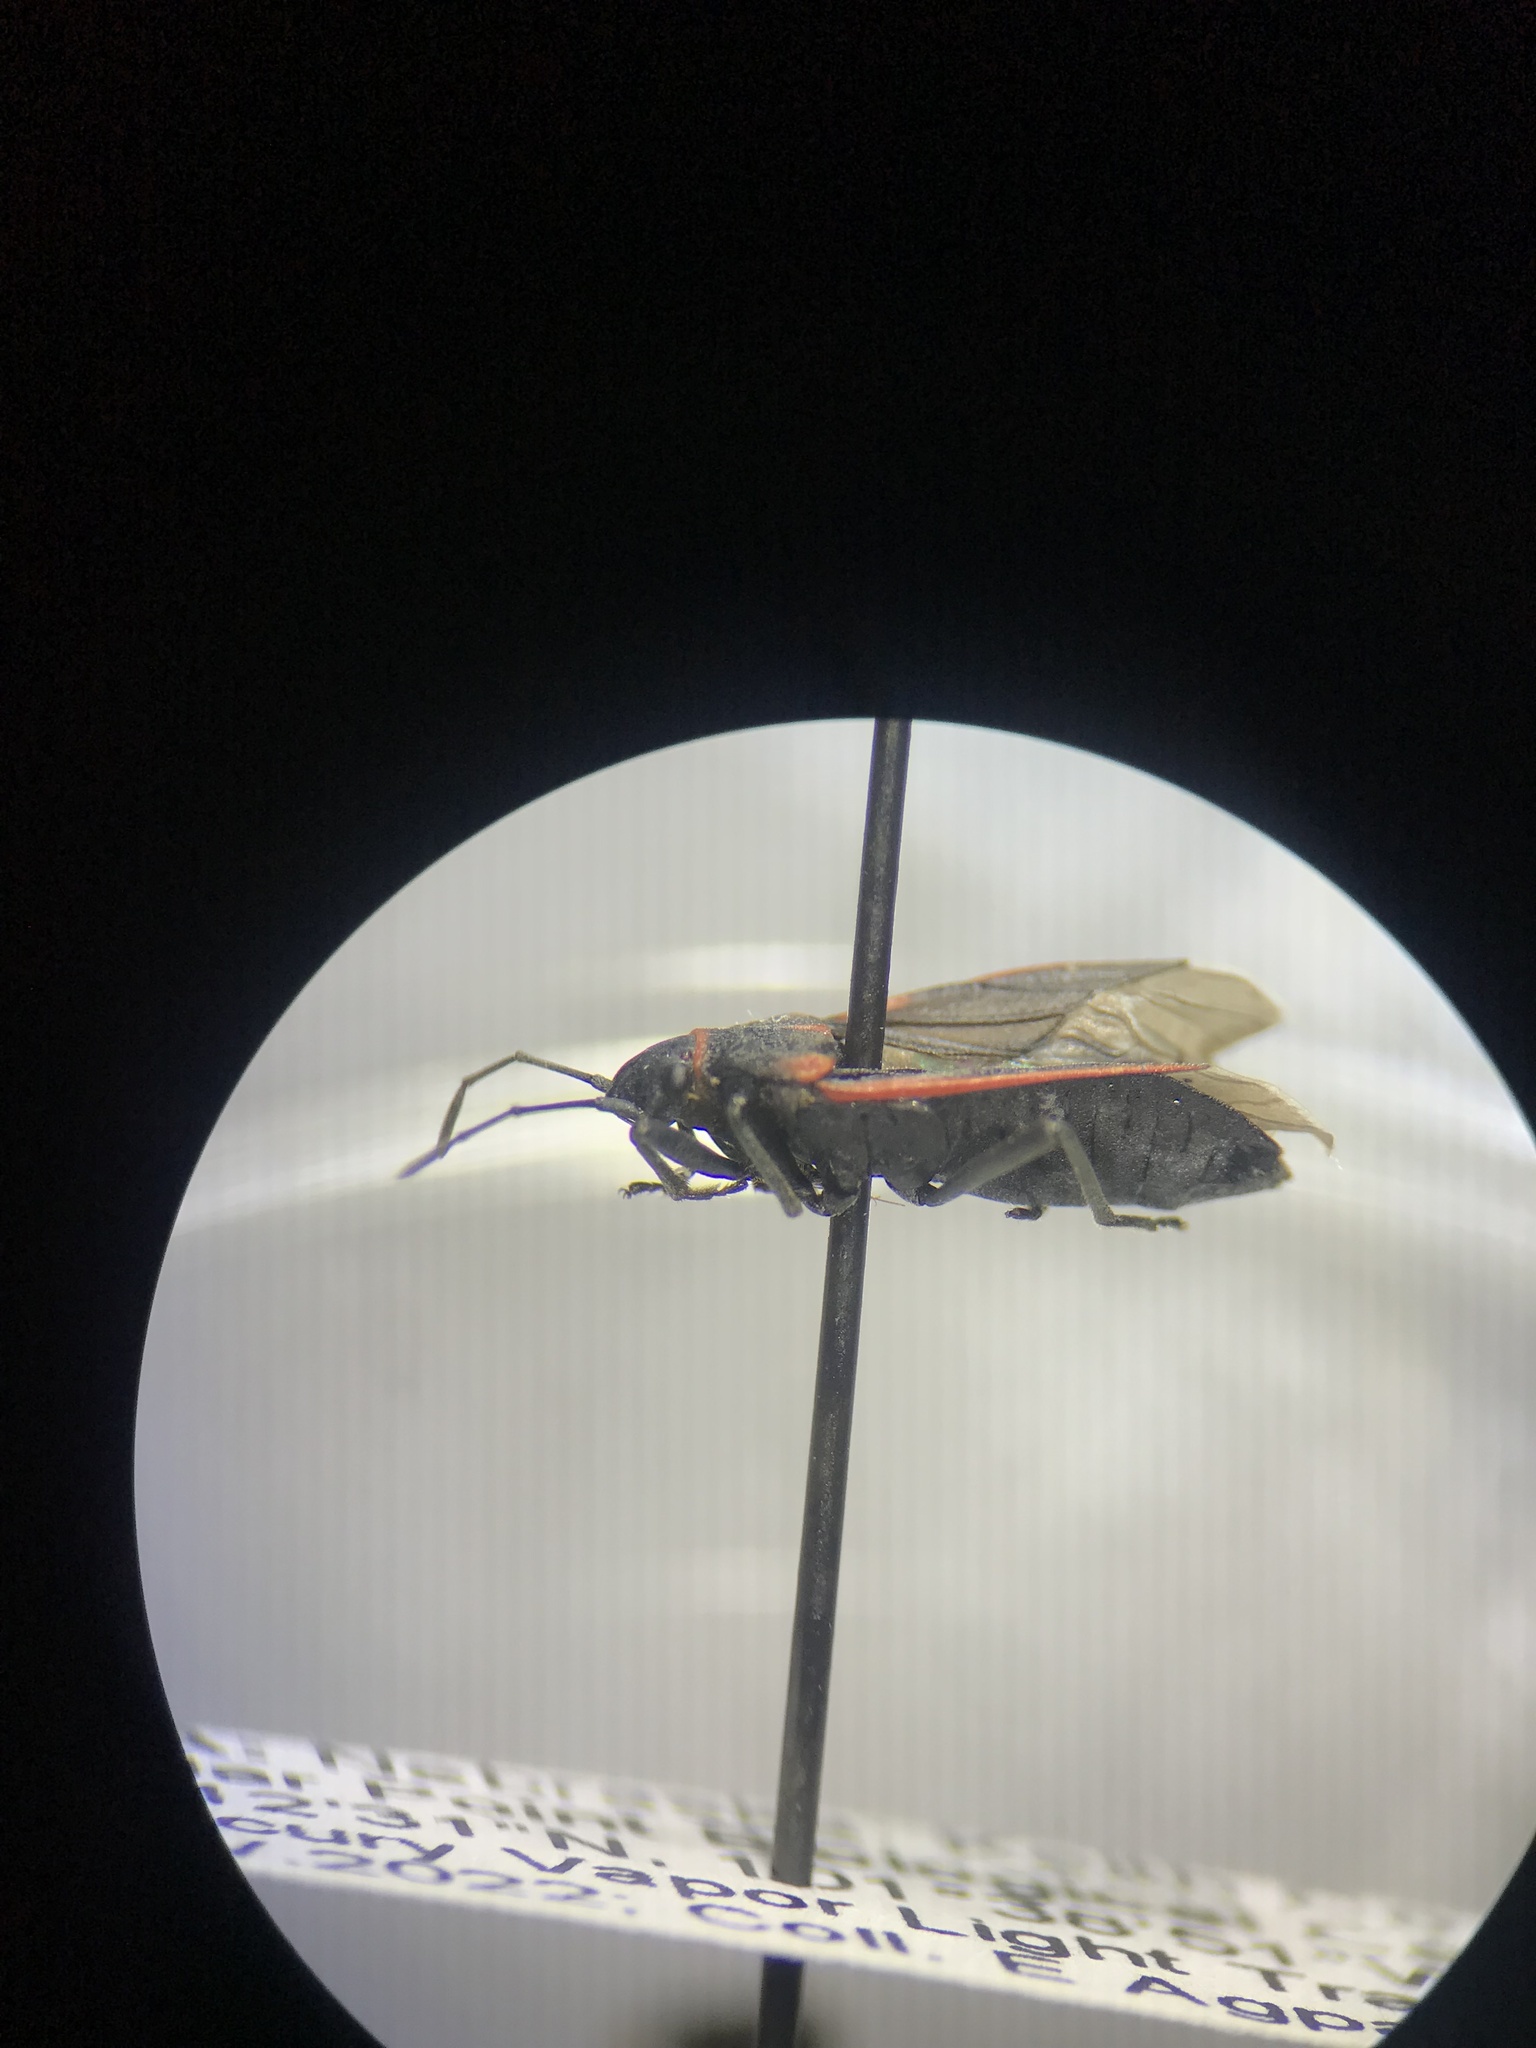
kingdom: Animalia
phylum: Arthropoda
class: Insecta
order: Hemiptera
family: Lygaeidae
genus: Melacoryphus
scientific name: Melacoryphus lateralis
